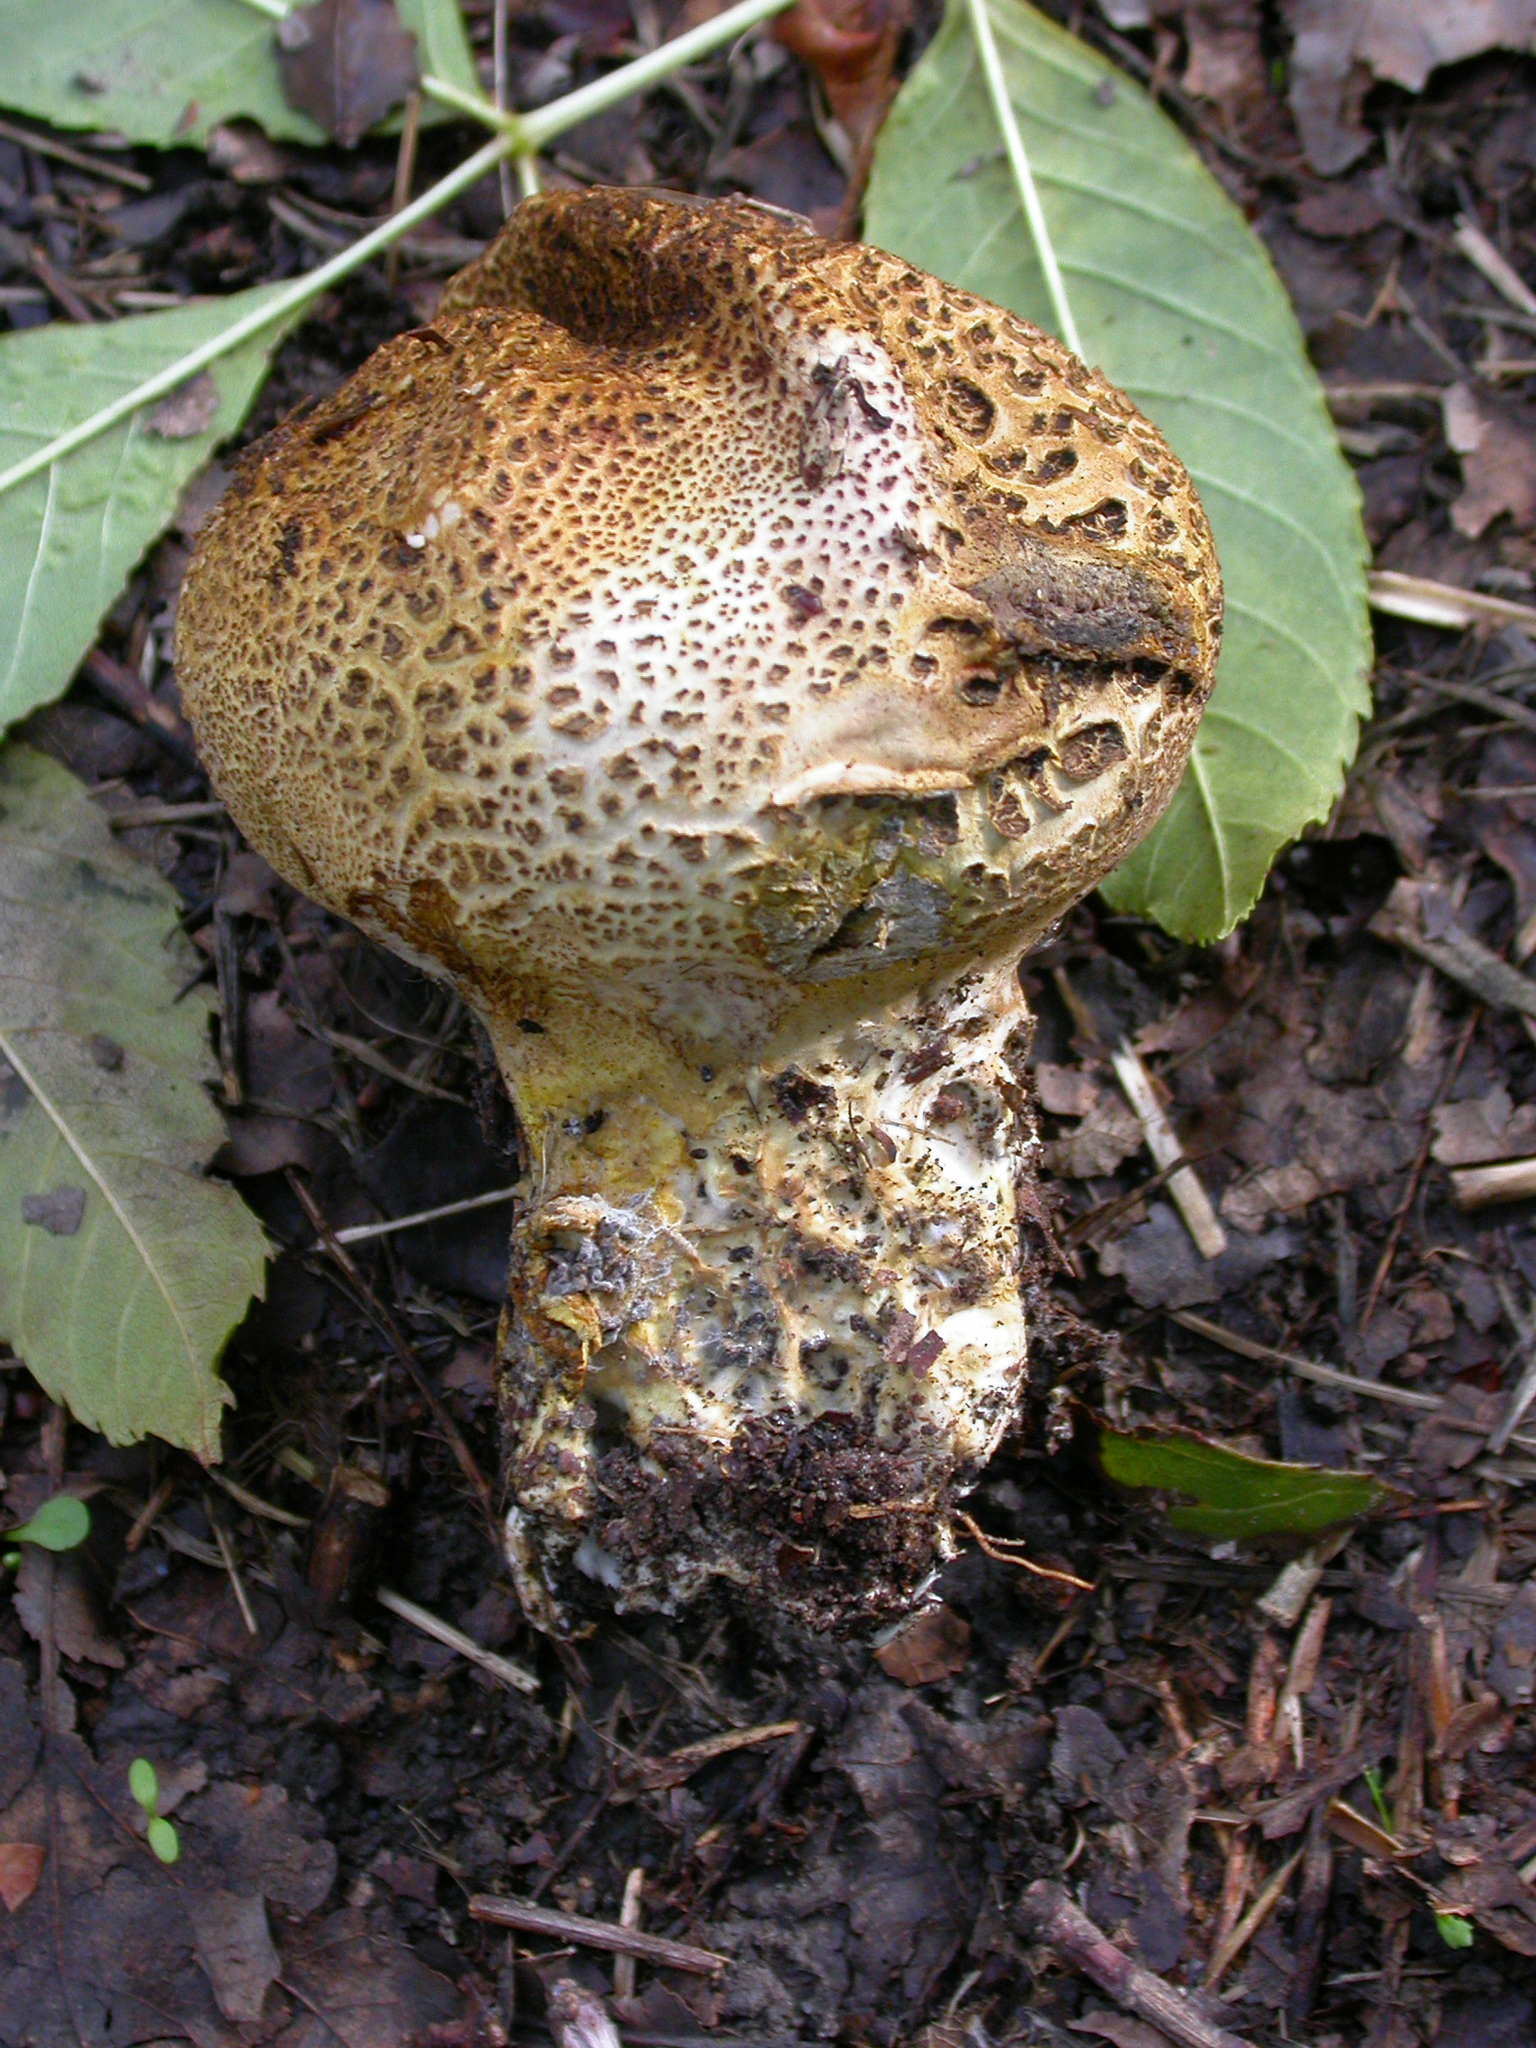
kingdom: Fungi
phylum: Basidiomycota
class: Agaricomycetes
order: Boletales
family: Sclerodermataceae
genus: Scleroderma
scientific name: Scleroderma verrucosum
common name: Scaly earthball
